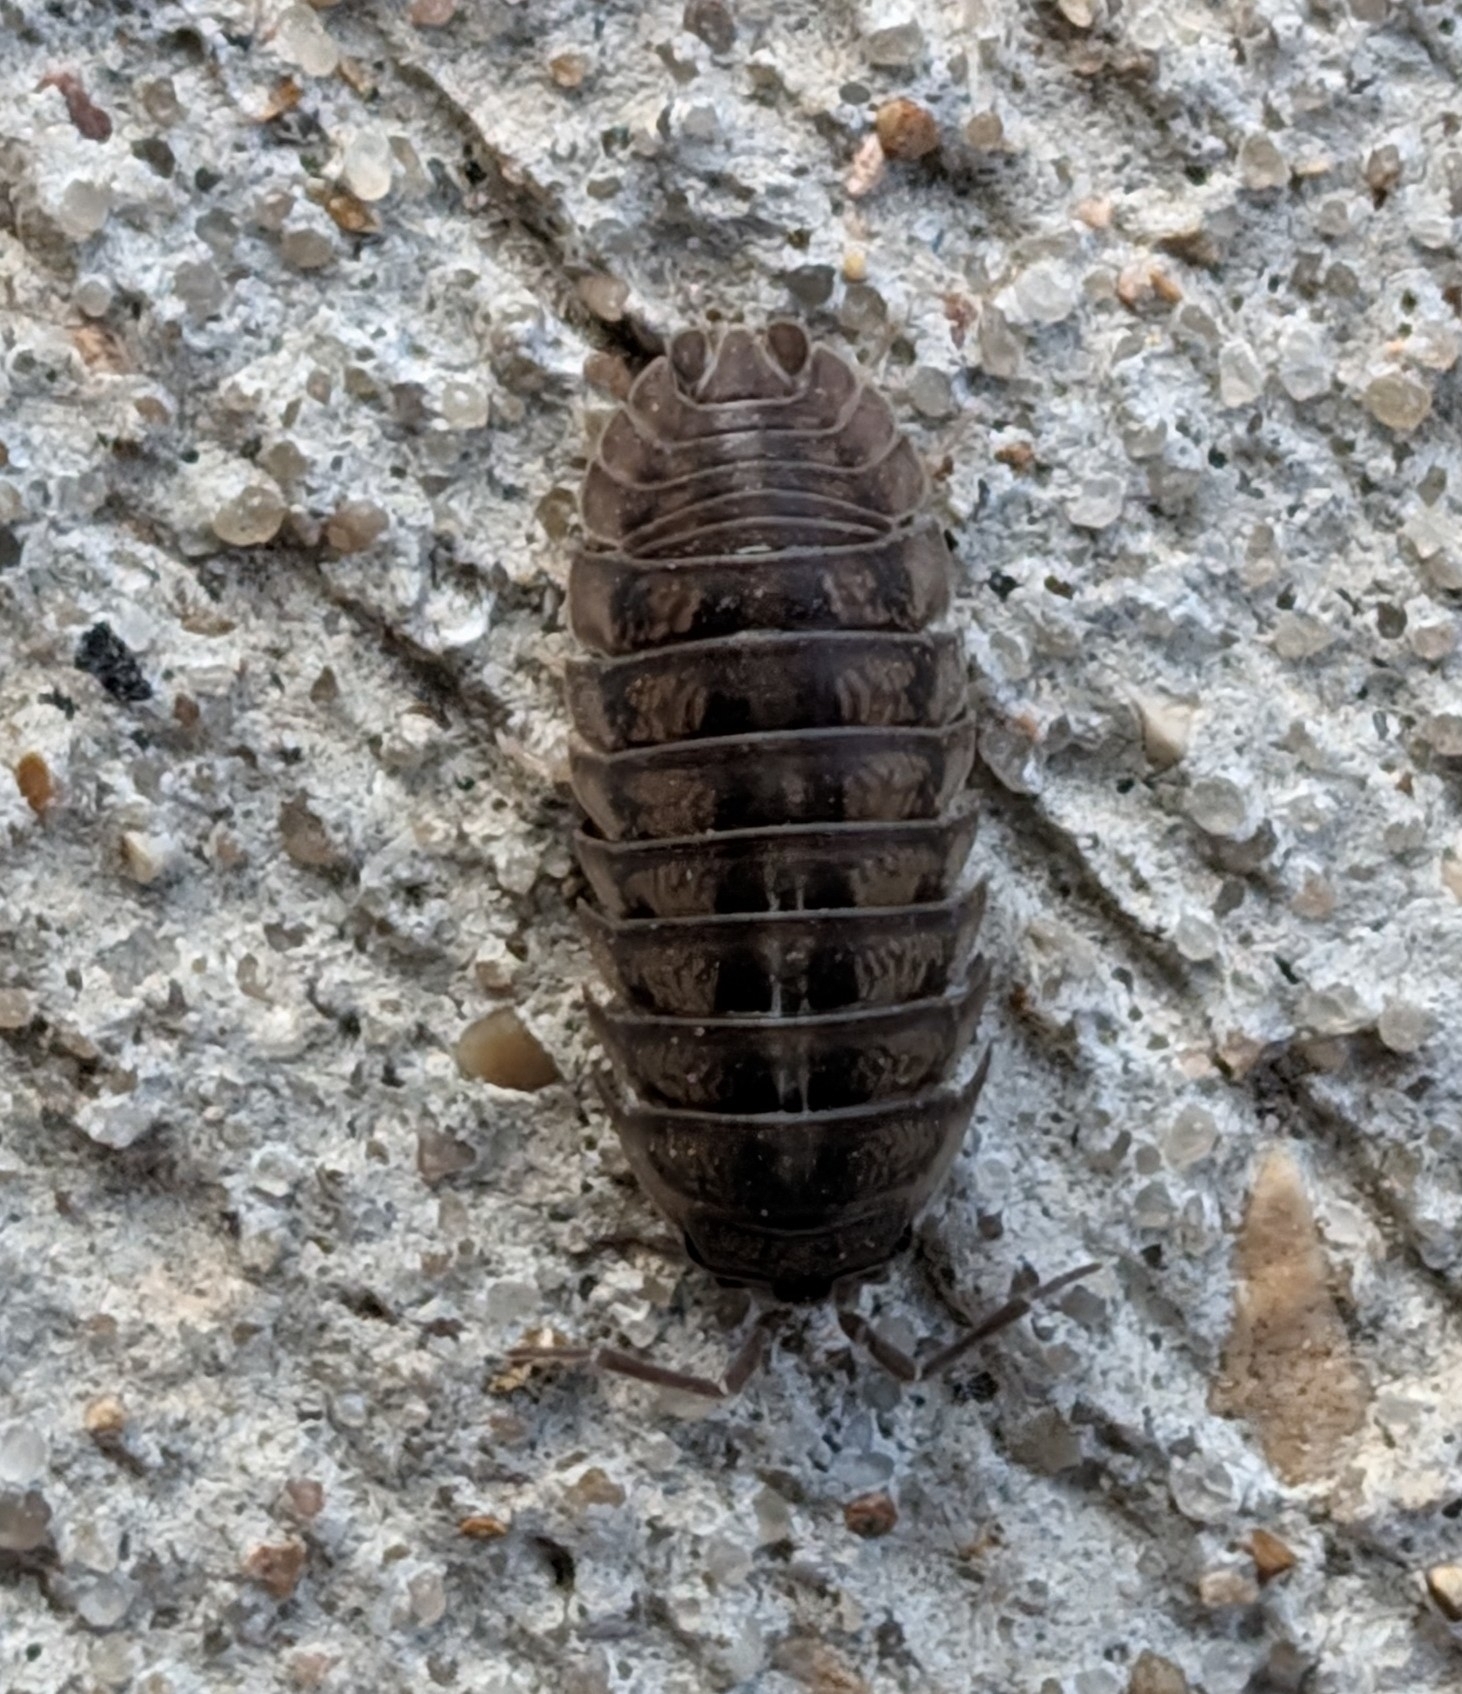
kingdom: Animalia
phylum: Arthropoda
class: Malacostraca
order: Isopoda
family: Armadillidiidae
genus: Armadillidium
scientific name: Armadillidium nasatum
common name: Isopod
